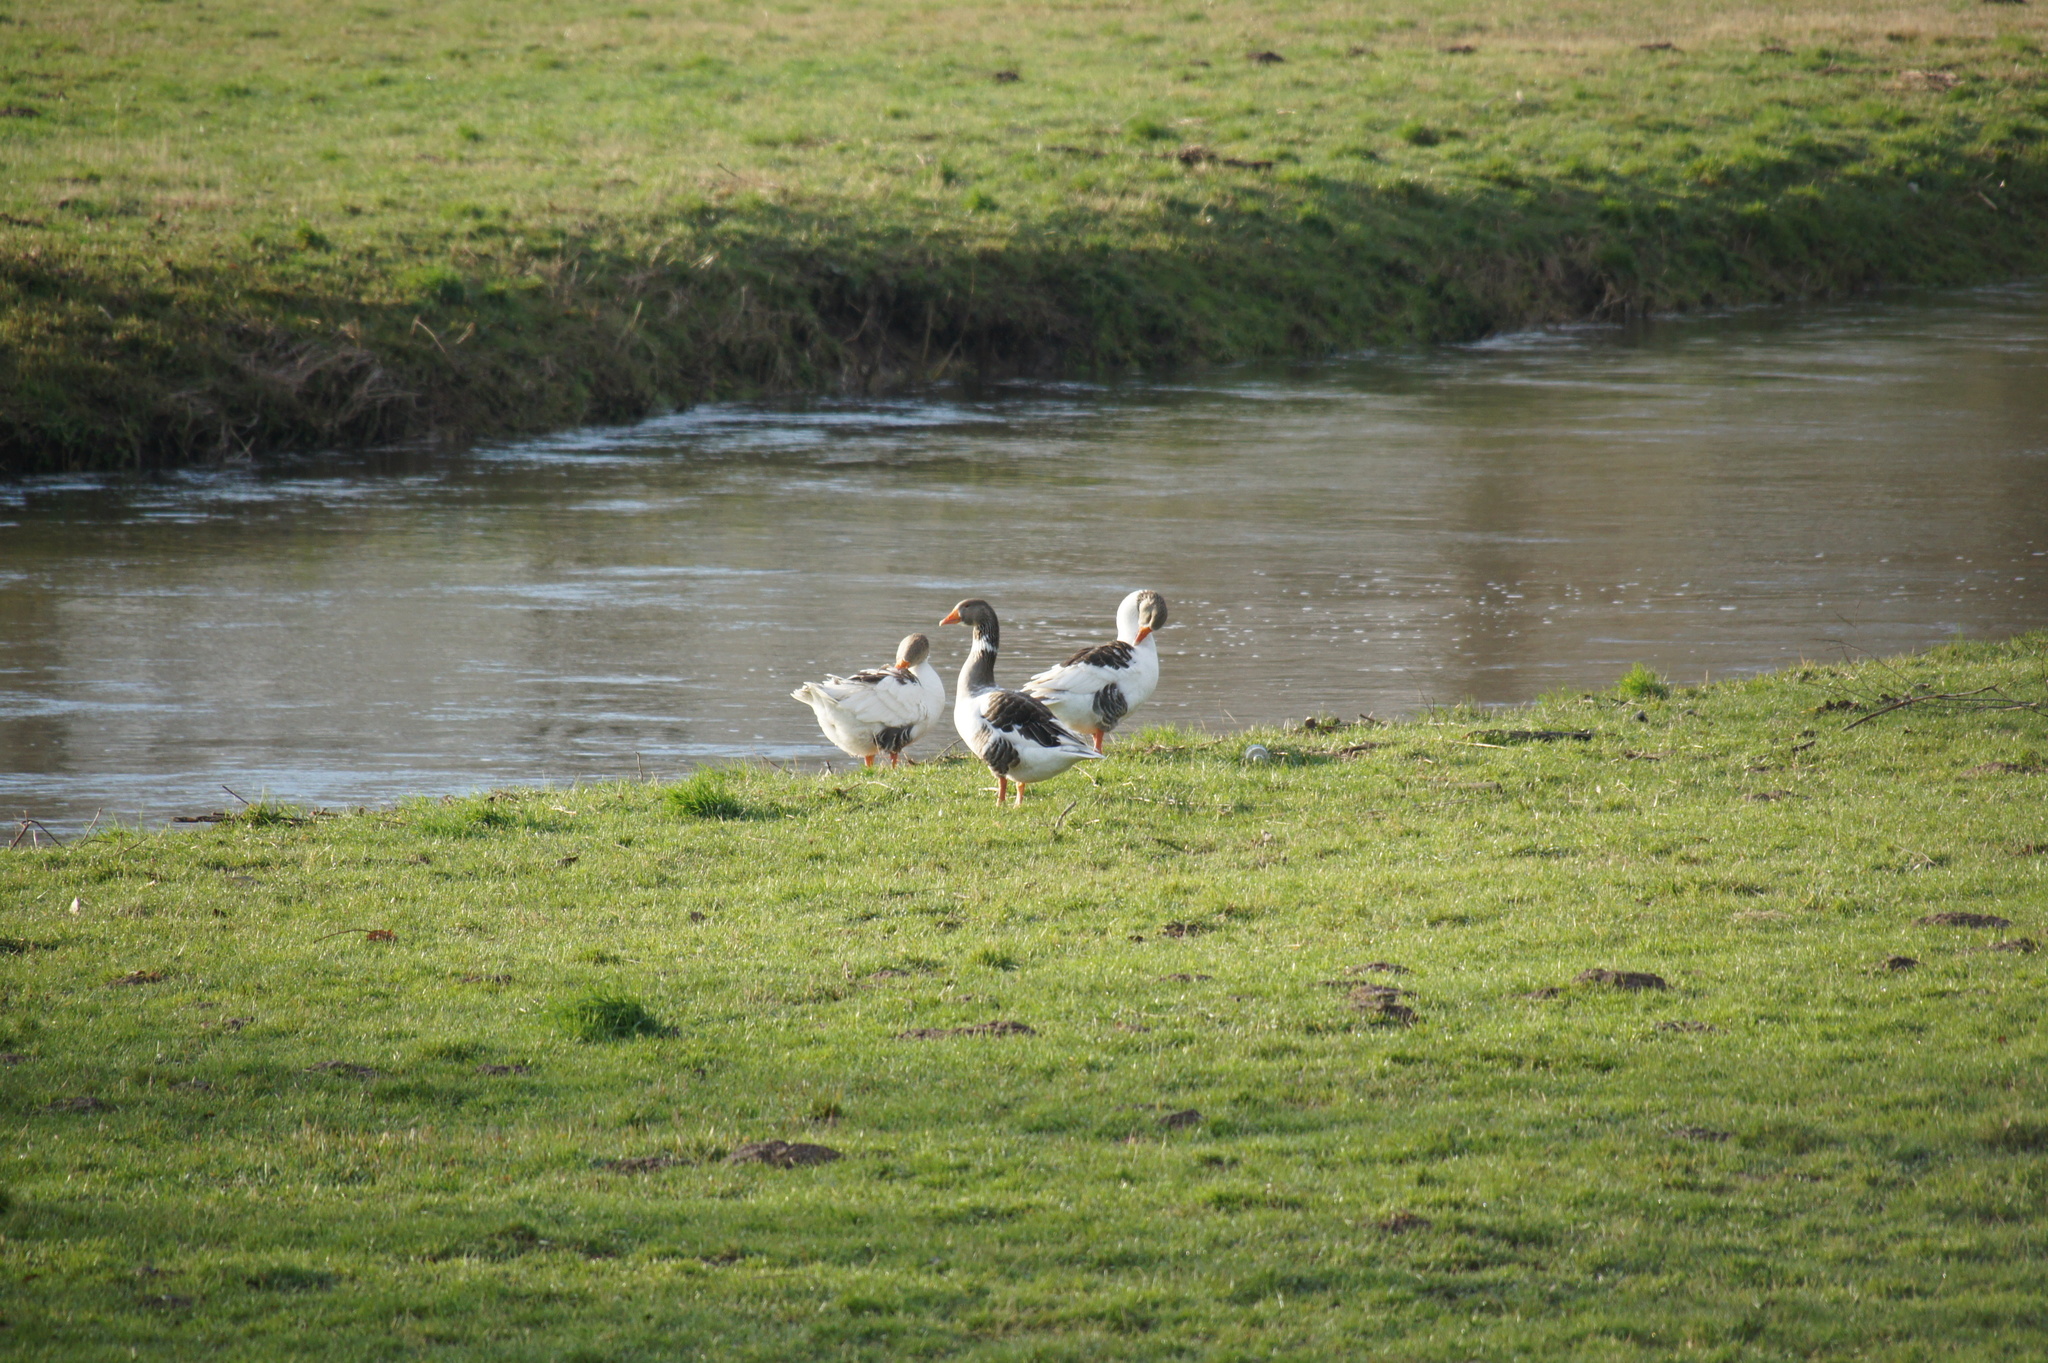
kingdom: Animalia
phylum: Chordata
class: Aves
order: Anseriformes
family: Anatidae
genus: Anser
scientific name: Anser anser
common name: Greylag goose
